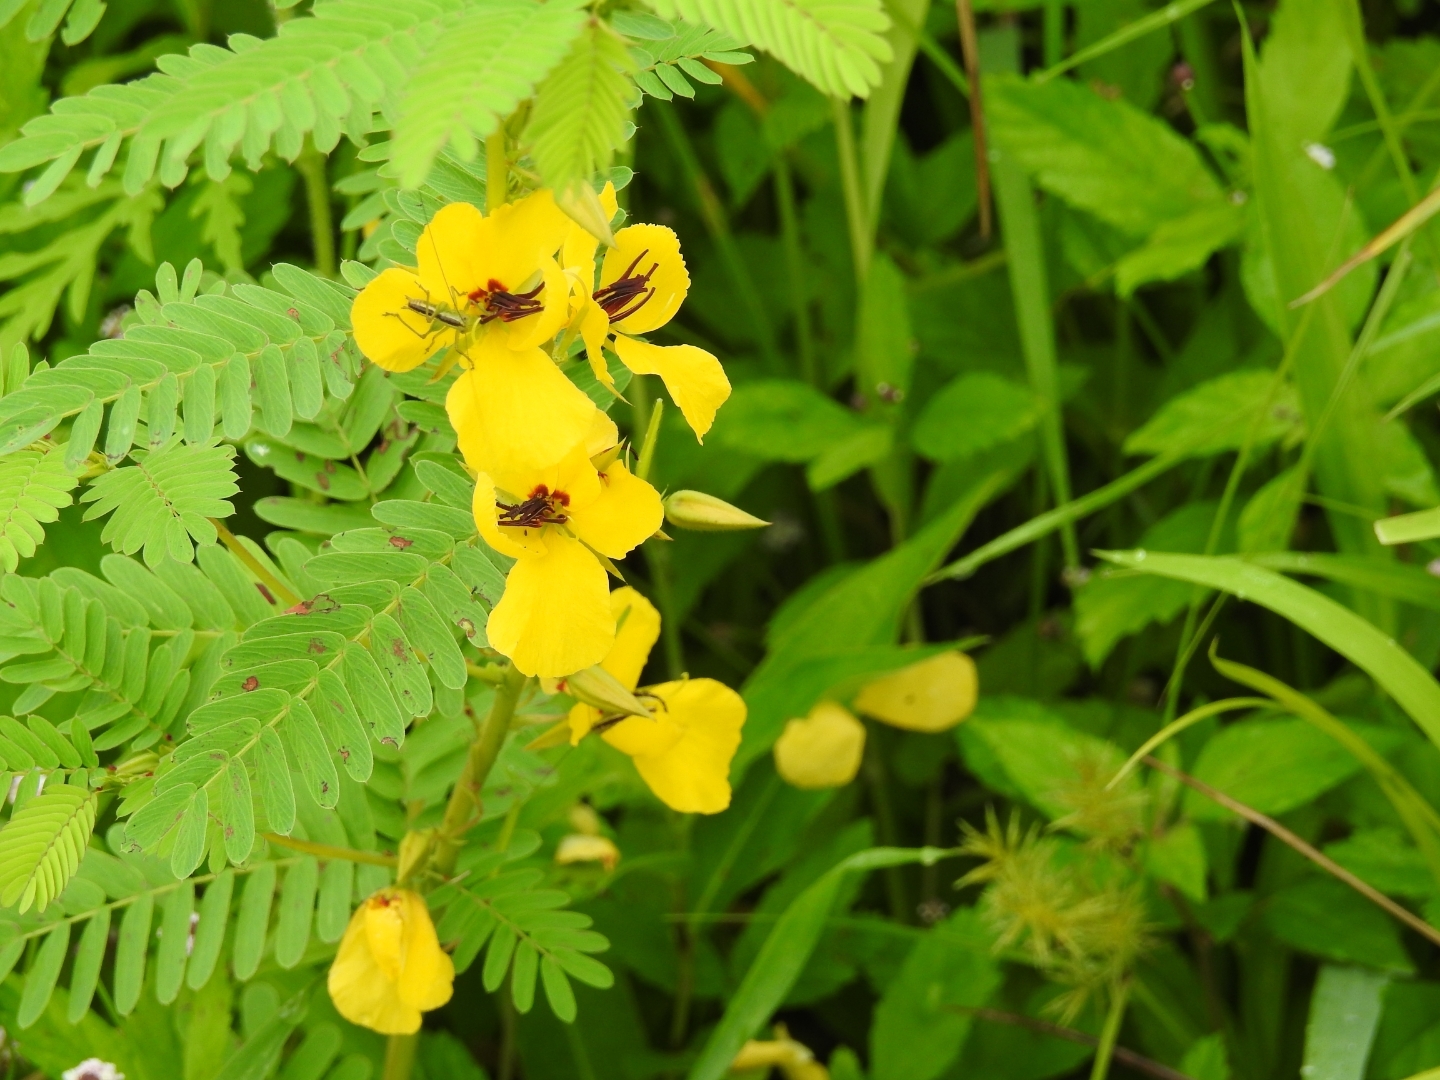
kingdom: Plantae
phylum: Tracheophyta
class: Magnoliopsida
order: Fabales
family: Fabaceae
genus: Chamaecrista
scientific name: Chamaecrista fasciculata
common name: Golden cassia
